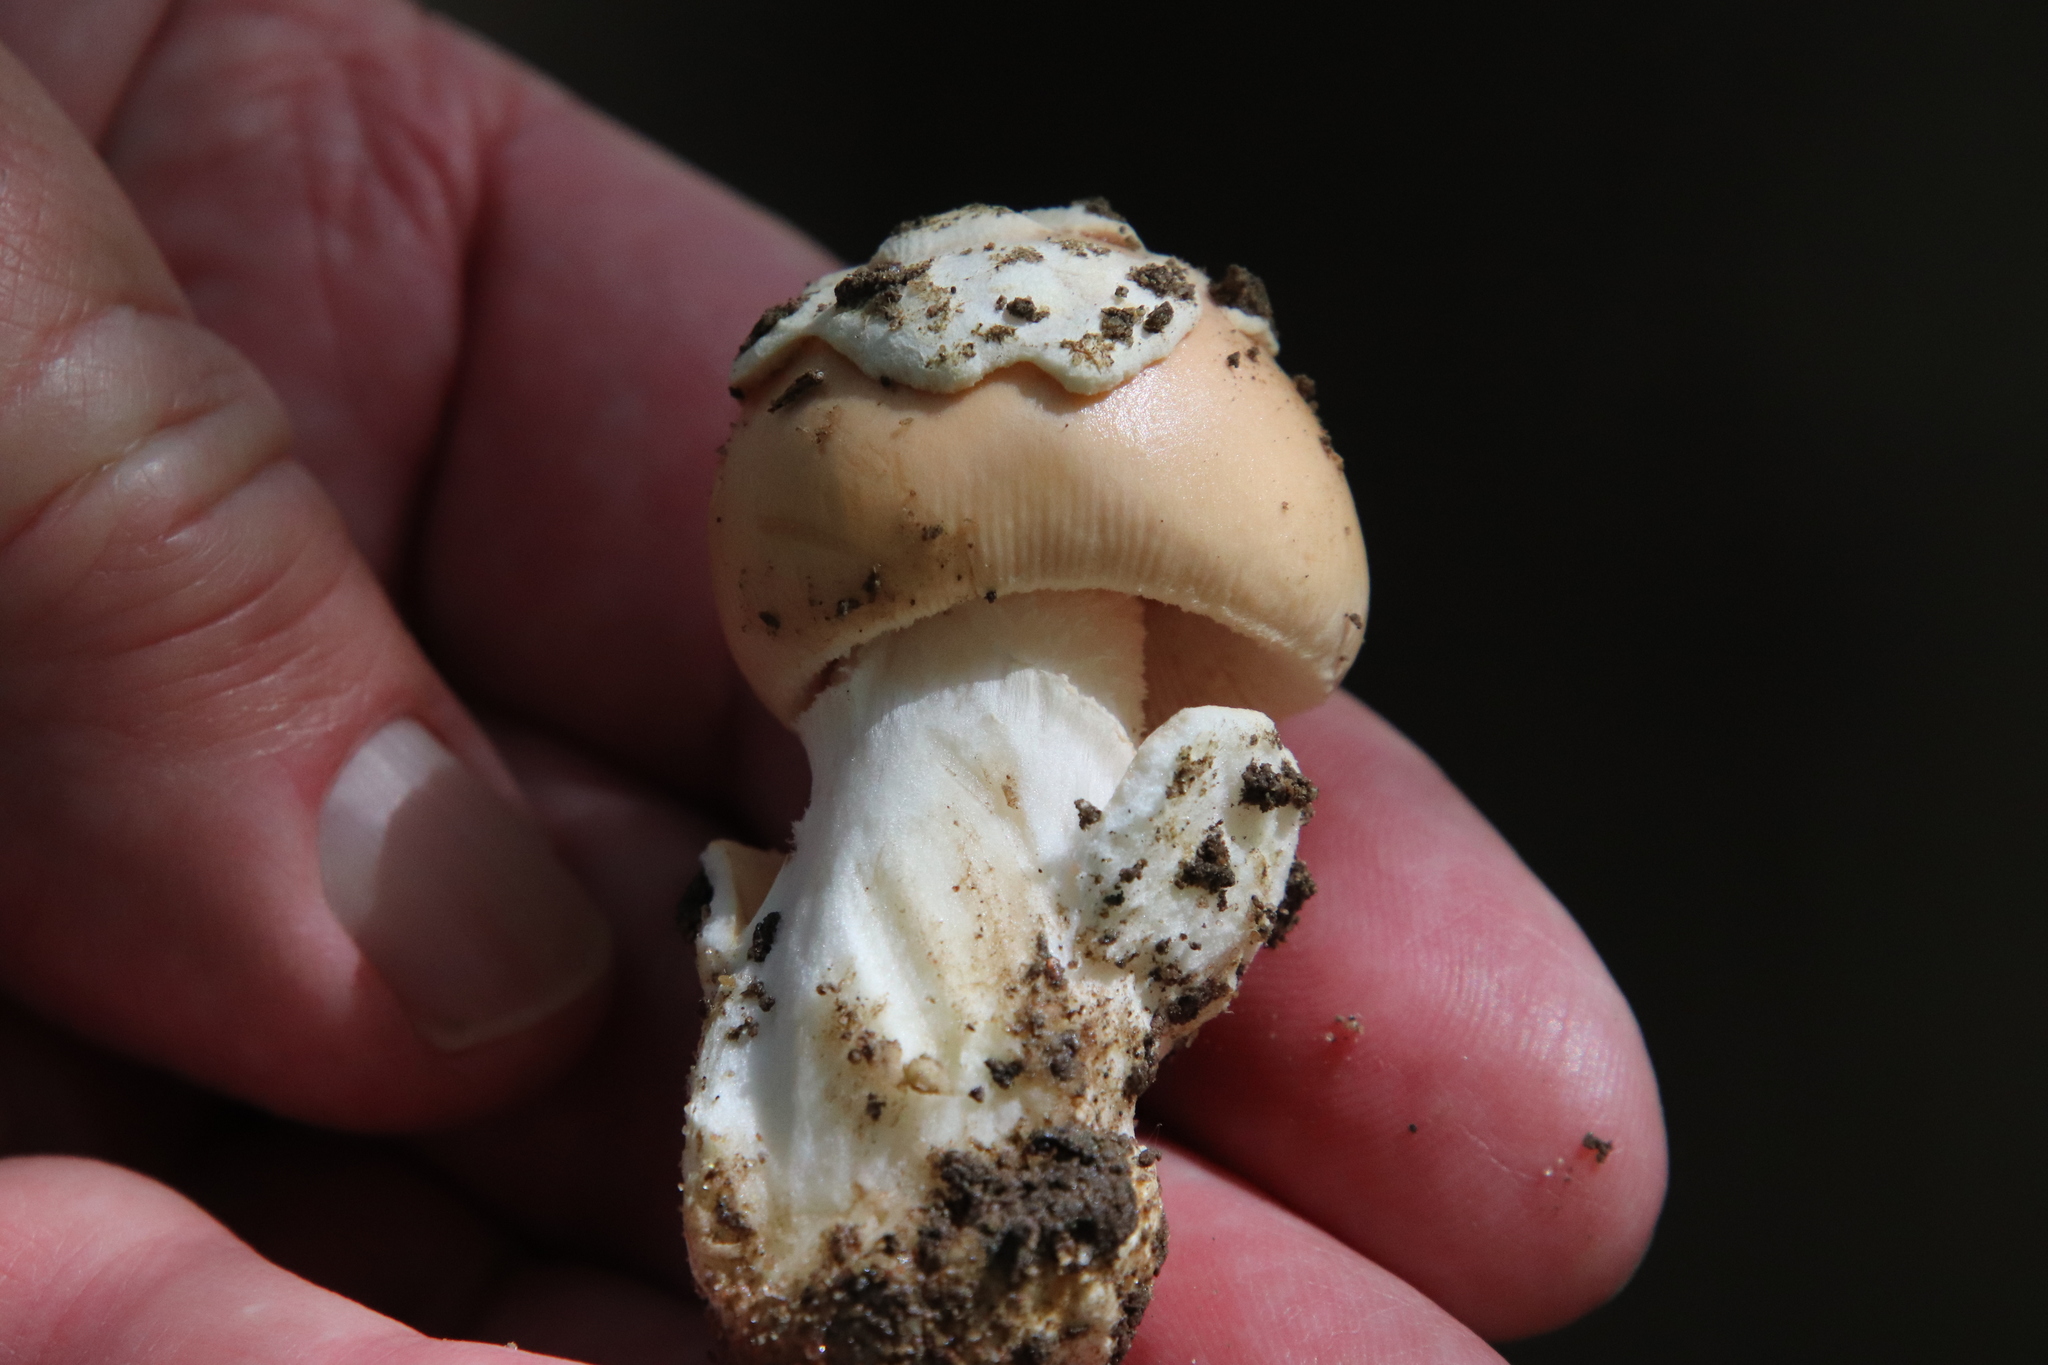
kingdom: Fungi
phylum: Basidiomycota
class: Agaricomycetes
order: Agaricales
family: Amanitaceae
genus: Amanita
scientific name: Amanita velosa
